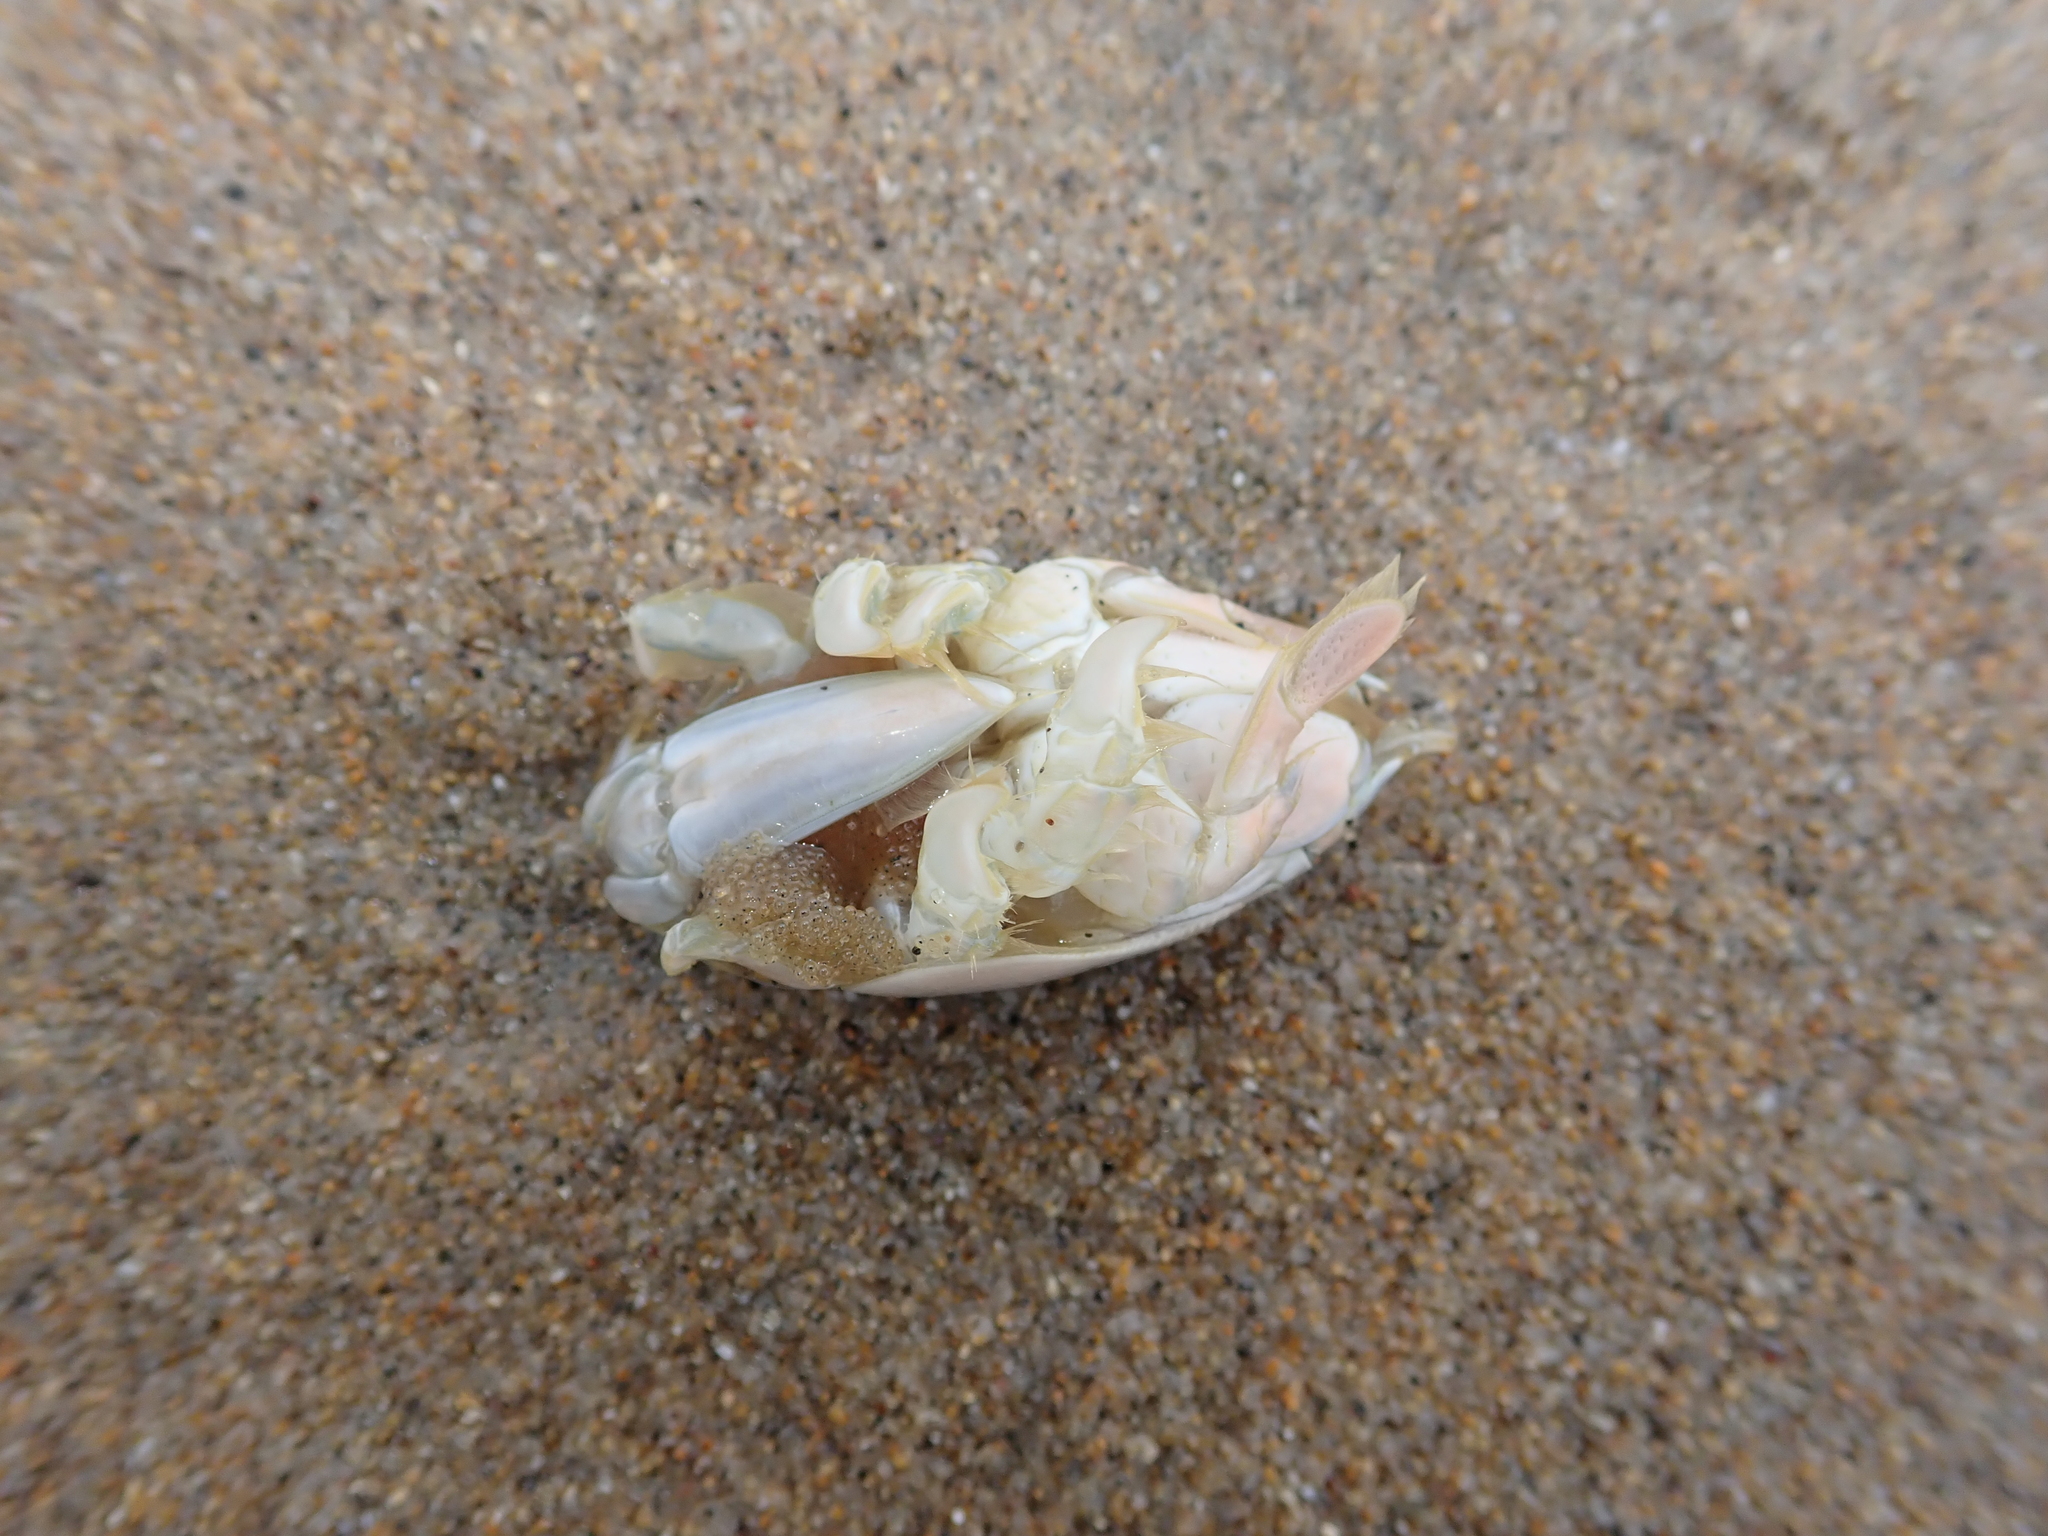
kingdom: Animalia
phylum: Arthropoda
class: Malacostraca
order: Decapoda
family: Hippidae
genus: Emerita
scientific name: Emerita analoga
